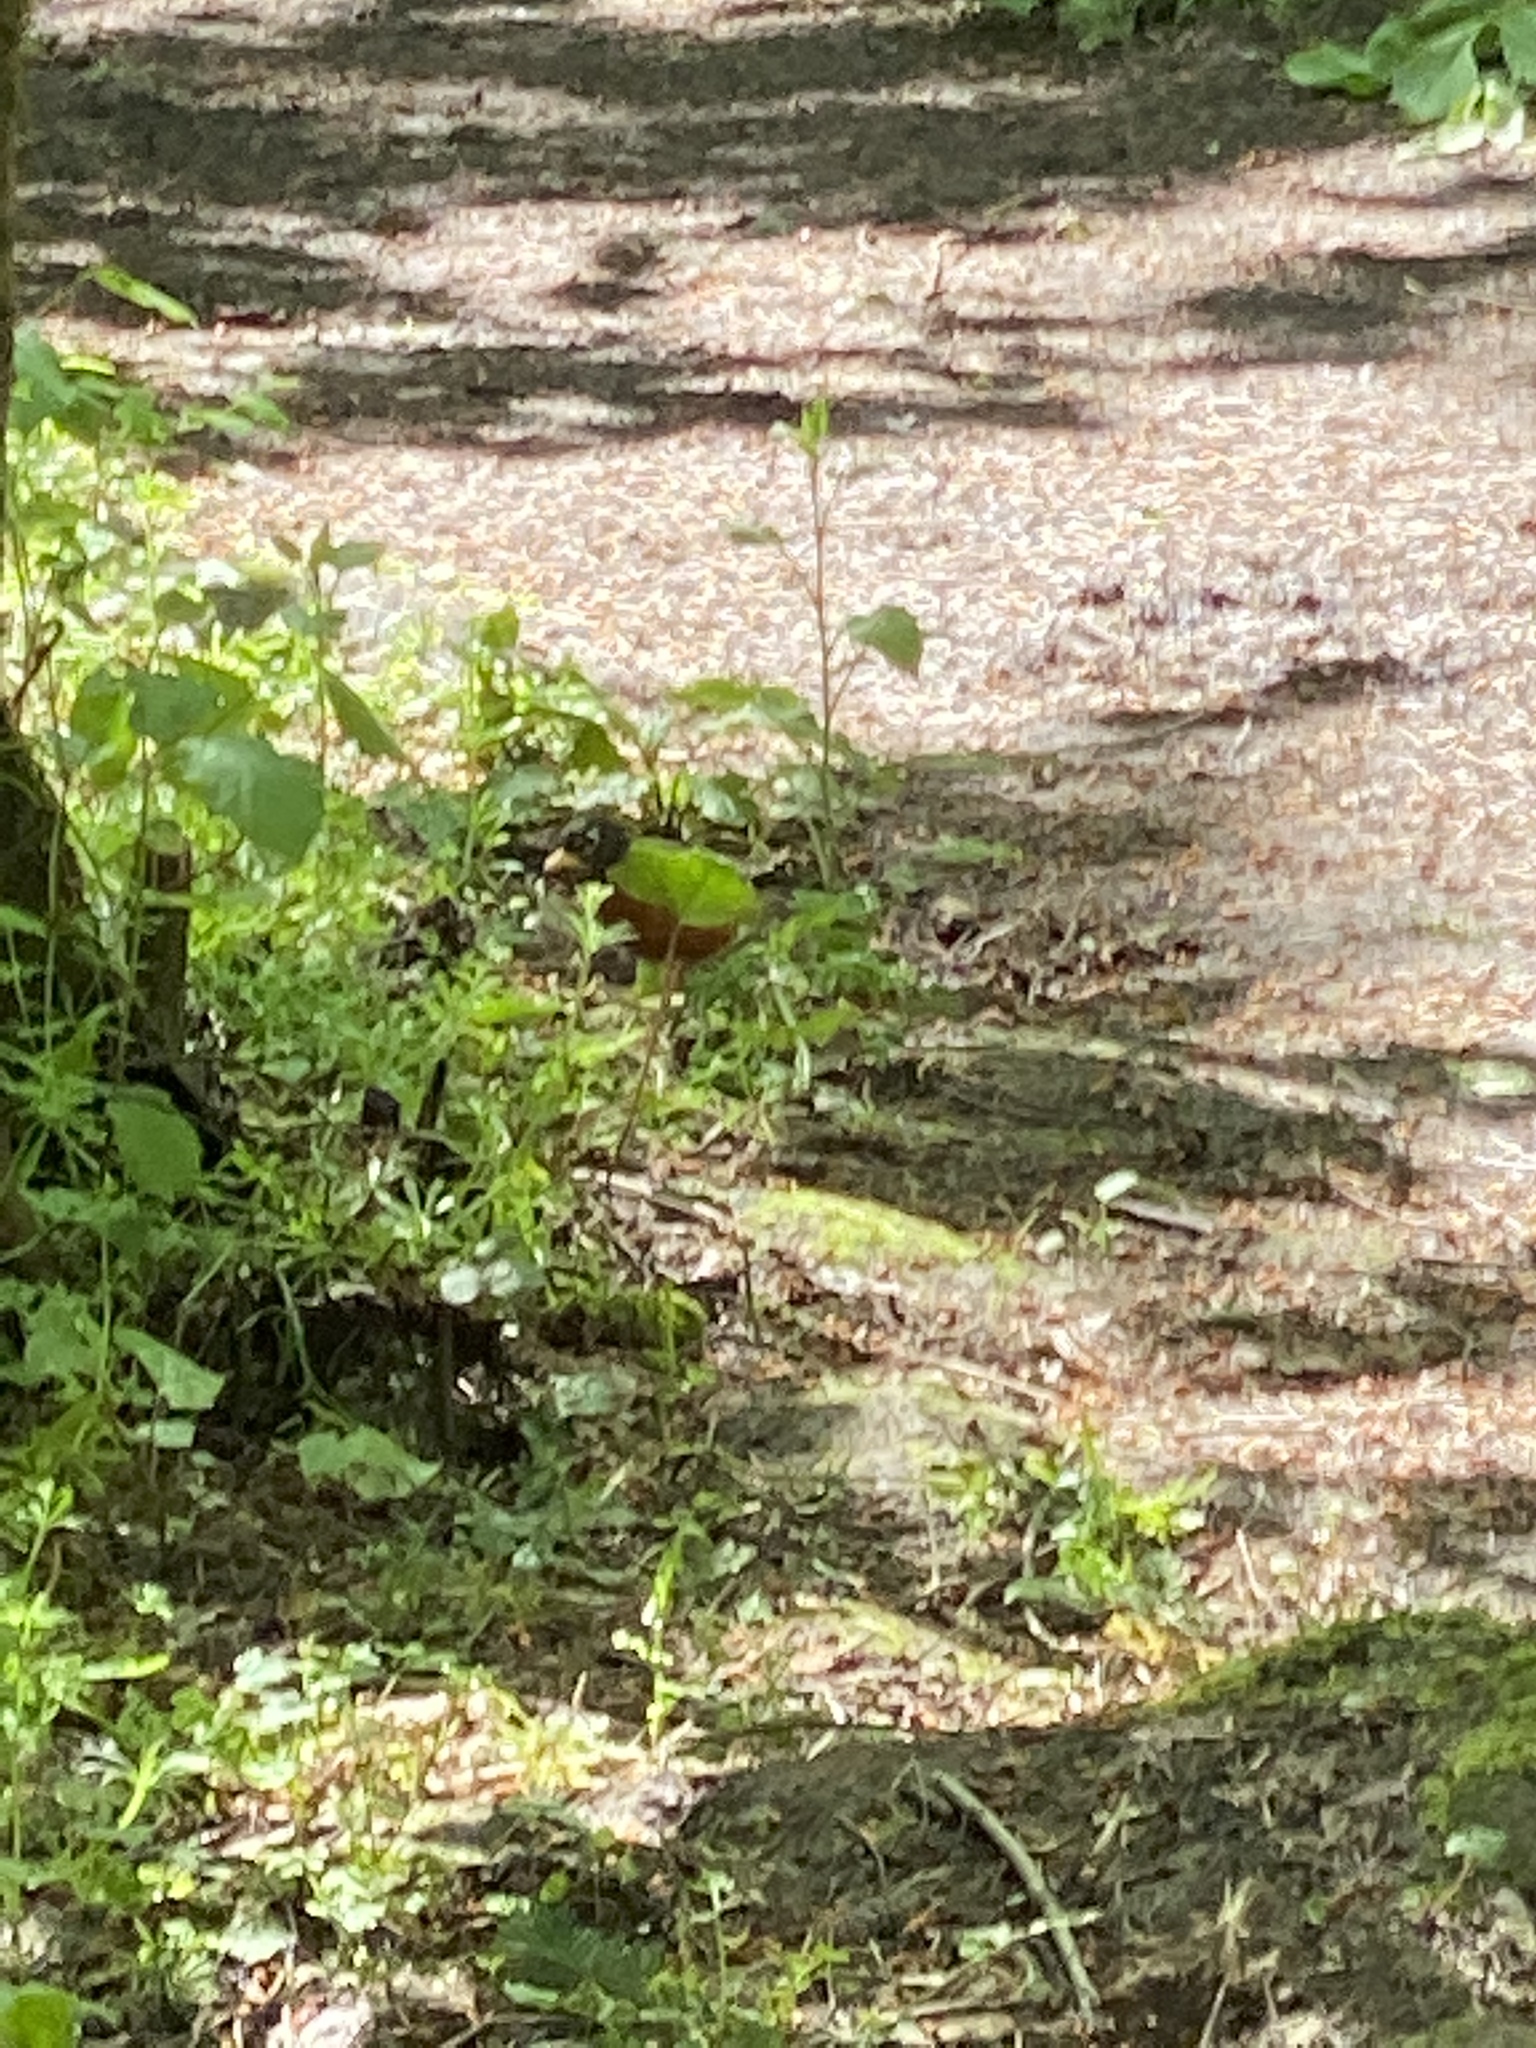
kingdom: Animalia
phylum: Chordata
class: Aves
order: Passeriformes
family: Turdidae
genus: Turdus
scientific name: Turdus migratorius
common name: American robin
